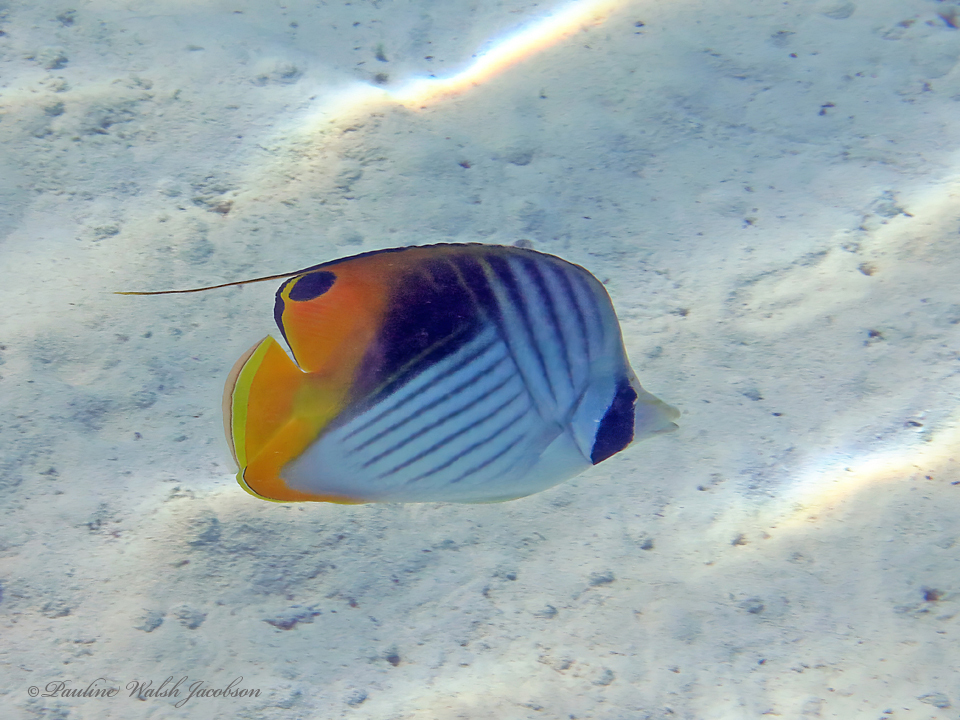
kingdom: Animalia
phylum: Chordata
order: Perciformes
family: Chaetodontidae
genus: Chaetodon
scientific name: Chaetodon auriga
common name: Threadfin butterflyfish
